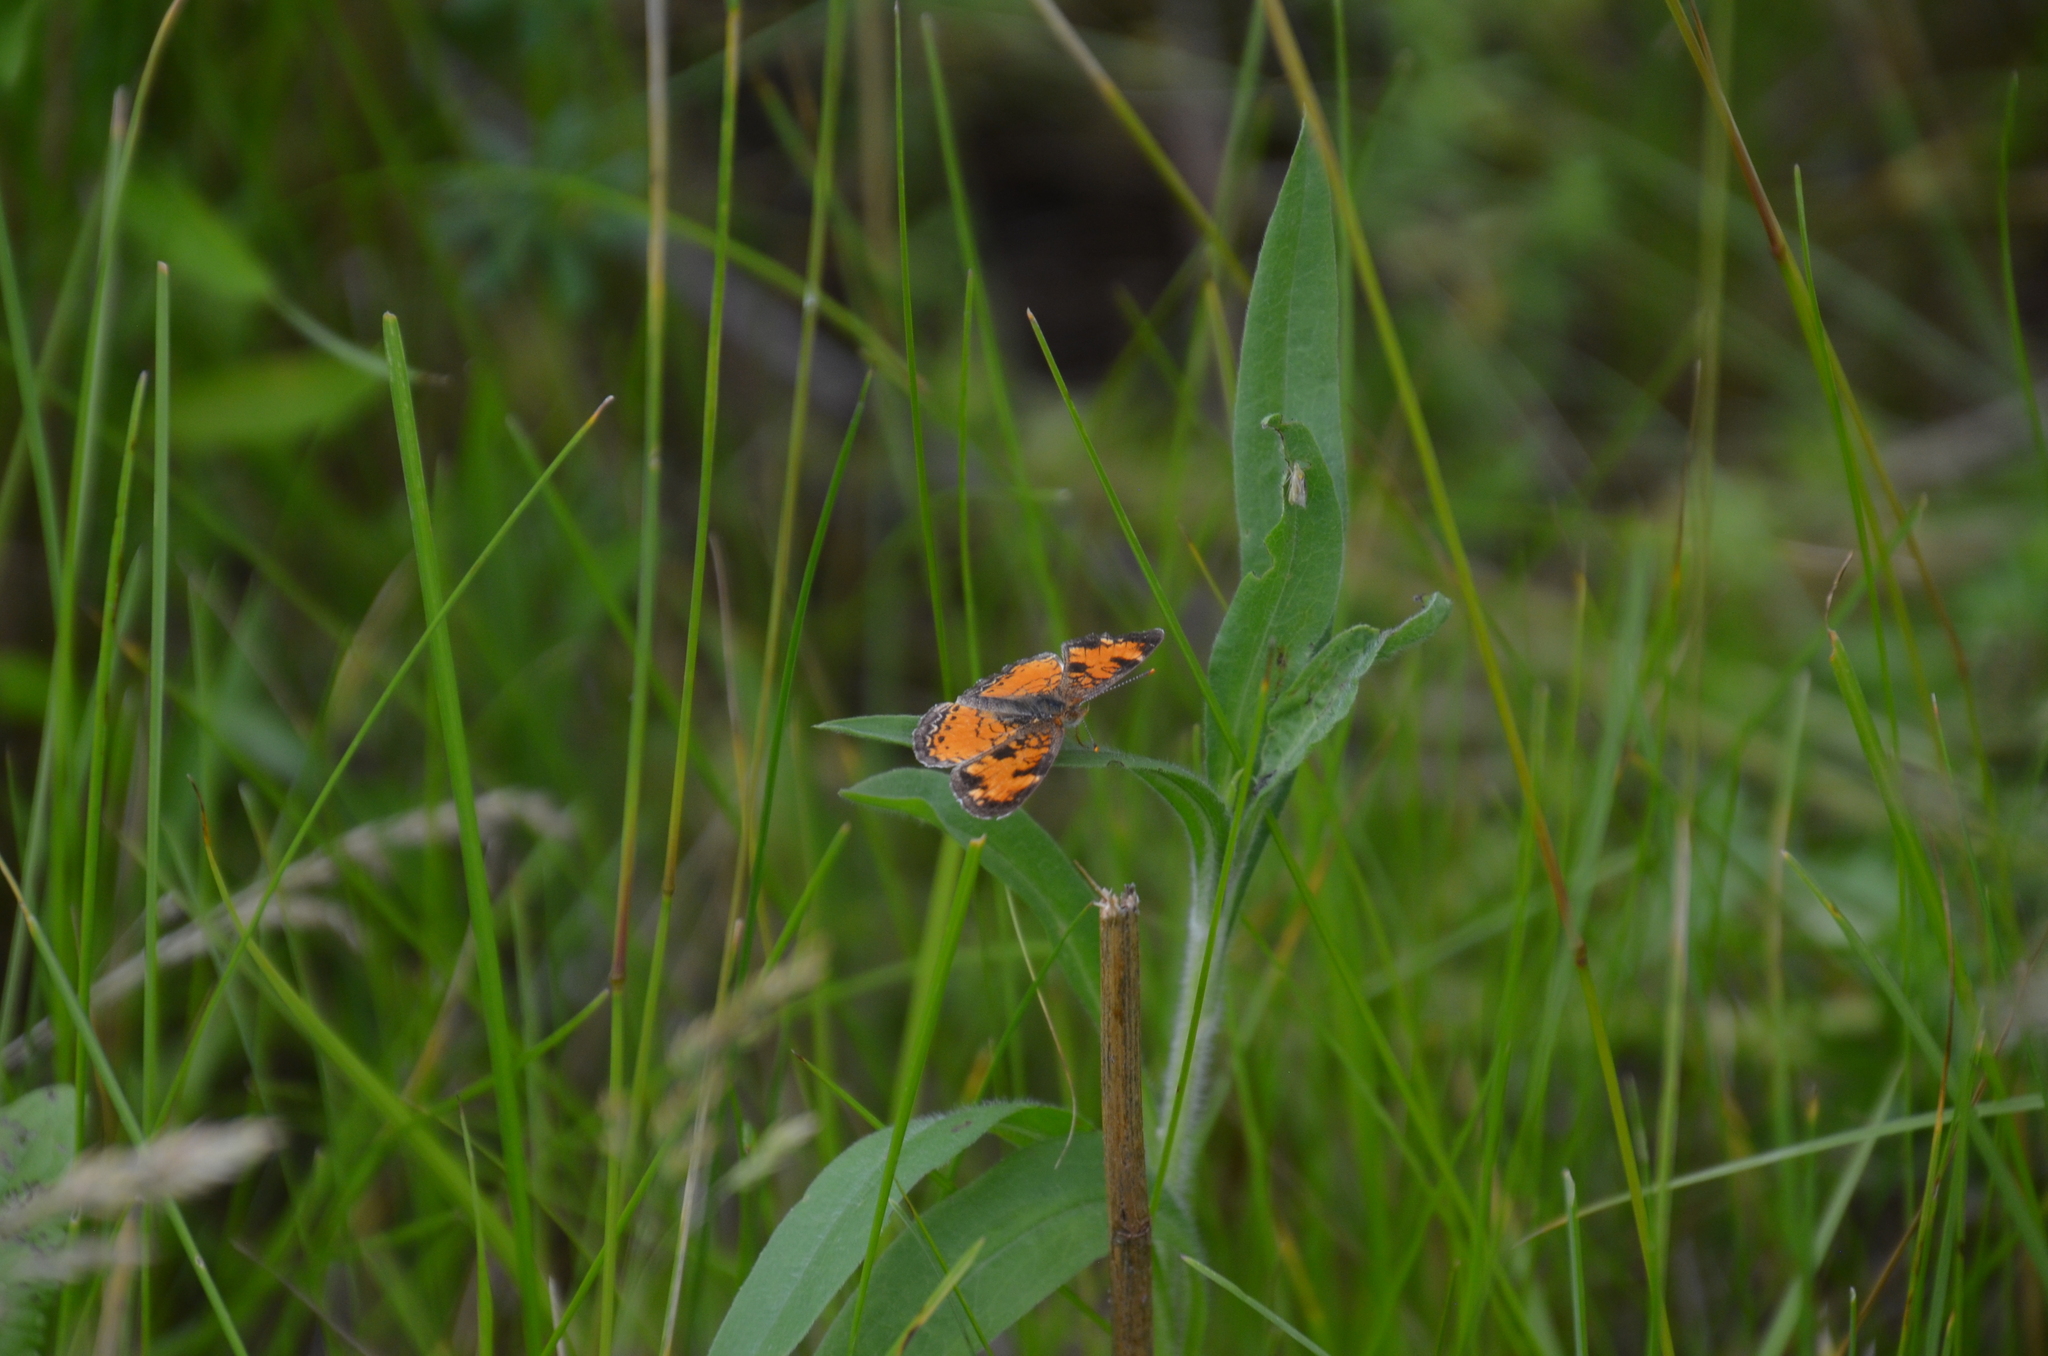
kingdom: Animalia
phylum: Arthropoda
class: Insecta
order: Lepidoptera
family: Nymphalidae
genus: Phyciodes
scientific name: Phyciodes tharos
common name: Pearl crescent
